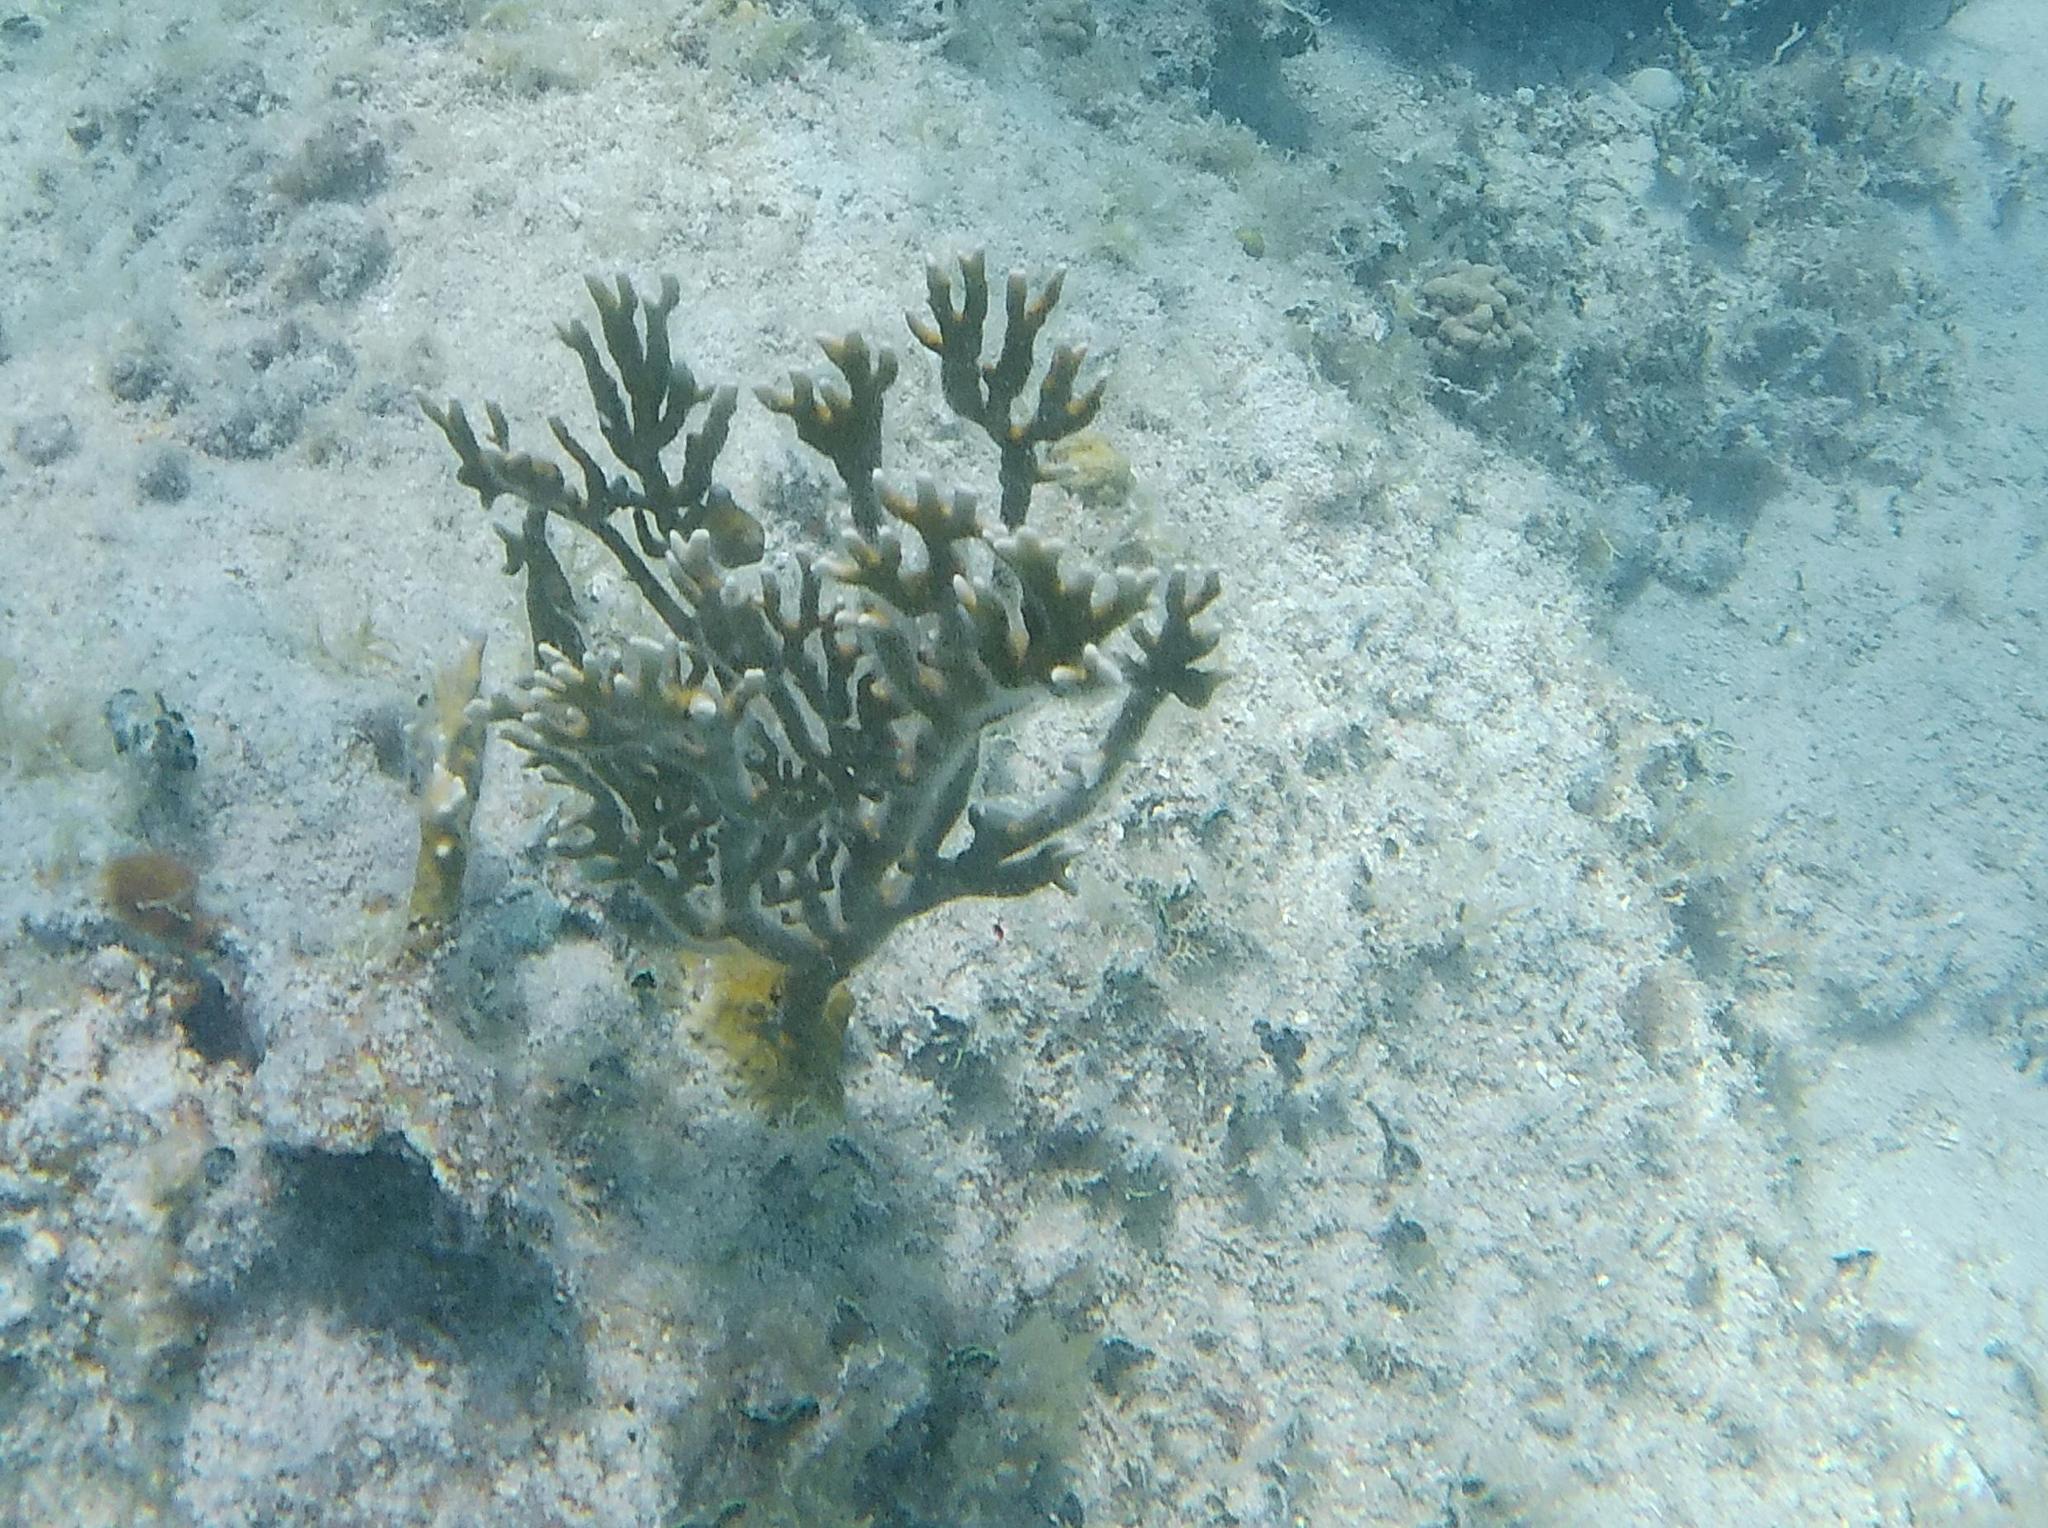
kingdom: Animalia
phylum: Cnidaria
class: Hydrozoa
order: Anthoathecata
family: Milleporidae
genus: Millepora
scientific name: Millepora alcicornis
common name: Branching fire coral
